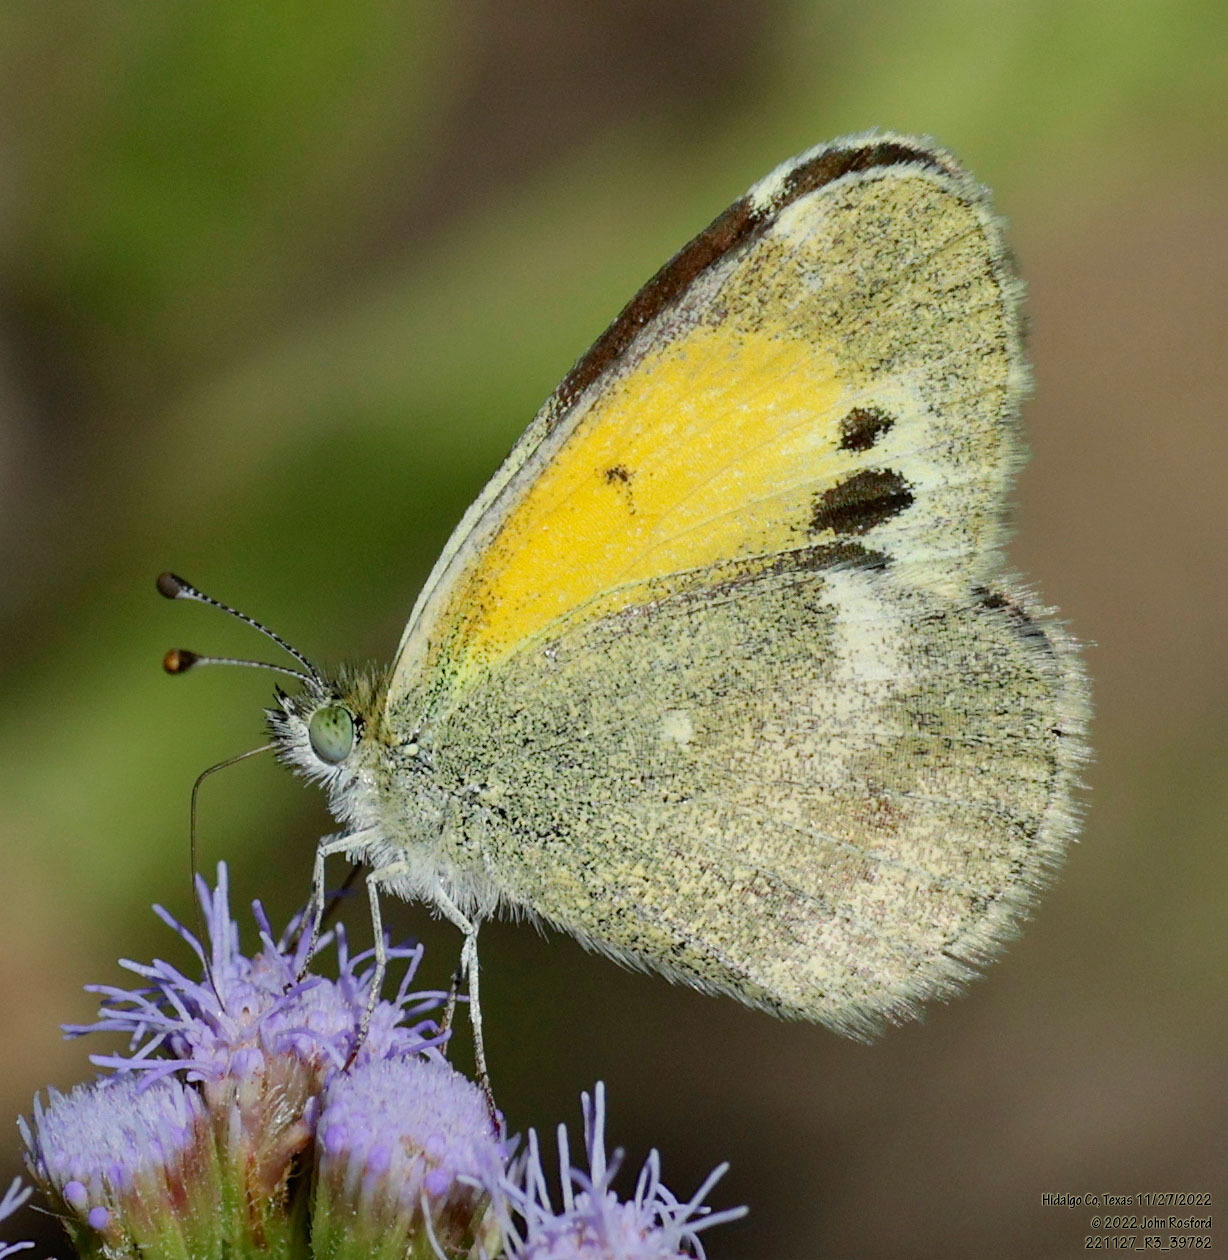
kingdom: Animalia
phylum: Arthropoda
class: Insecta
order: Lepidoptera
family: Pieridae
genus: Nathalis
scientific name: Nathalis iole
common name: Dainty sulphur
